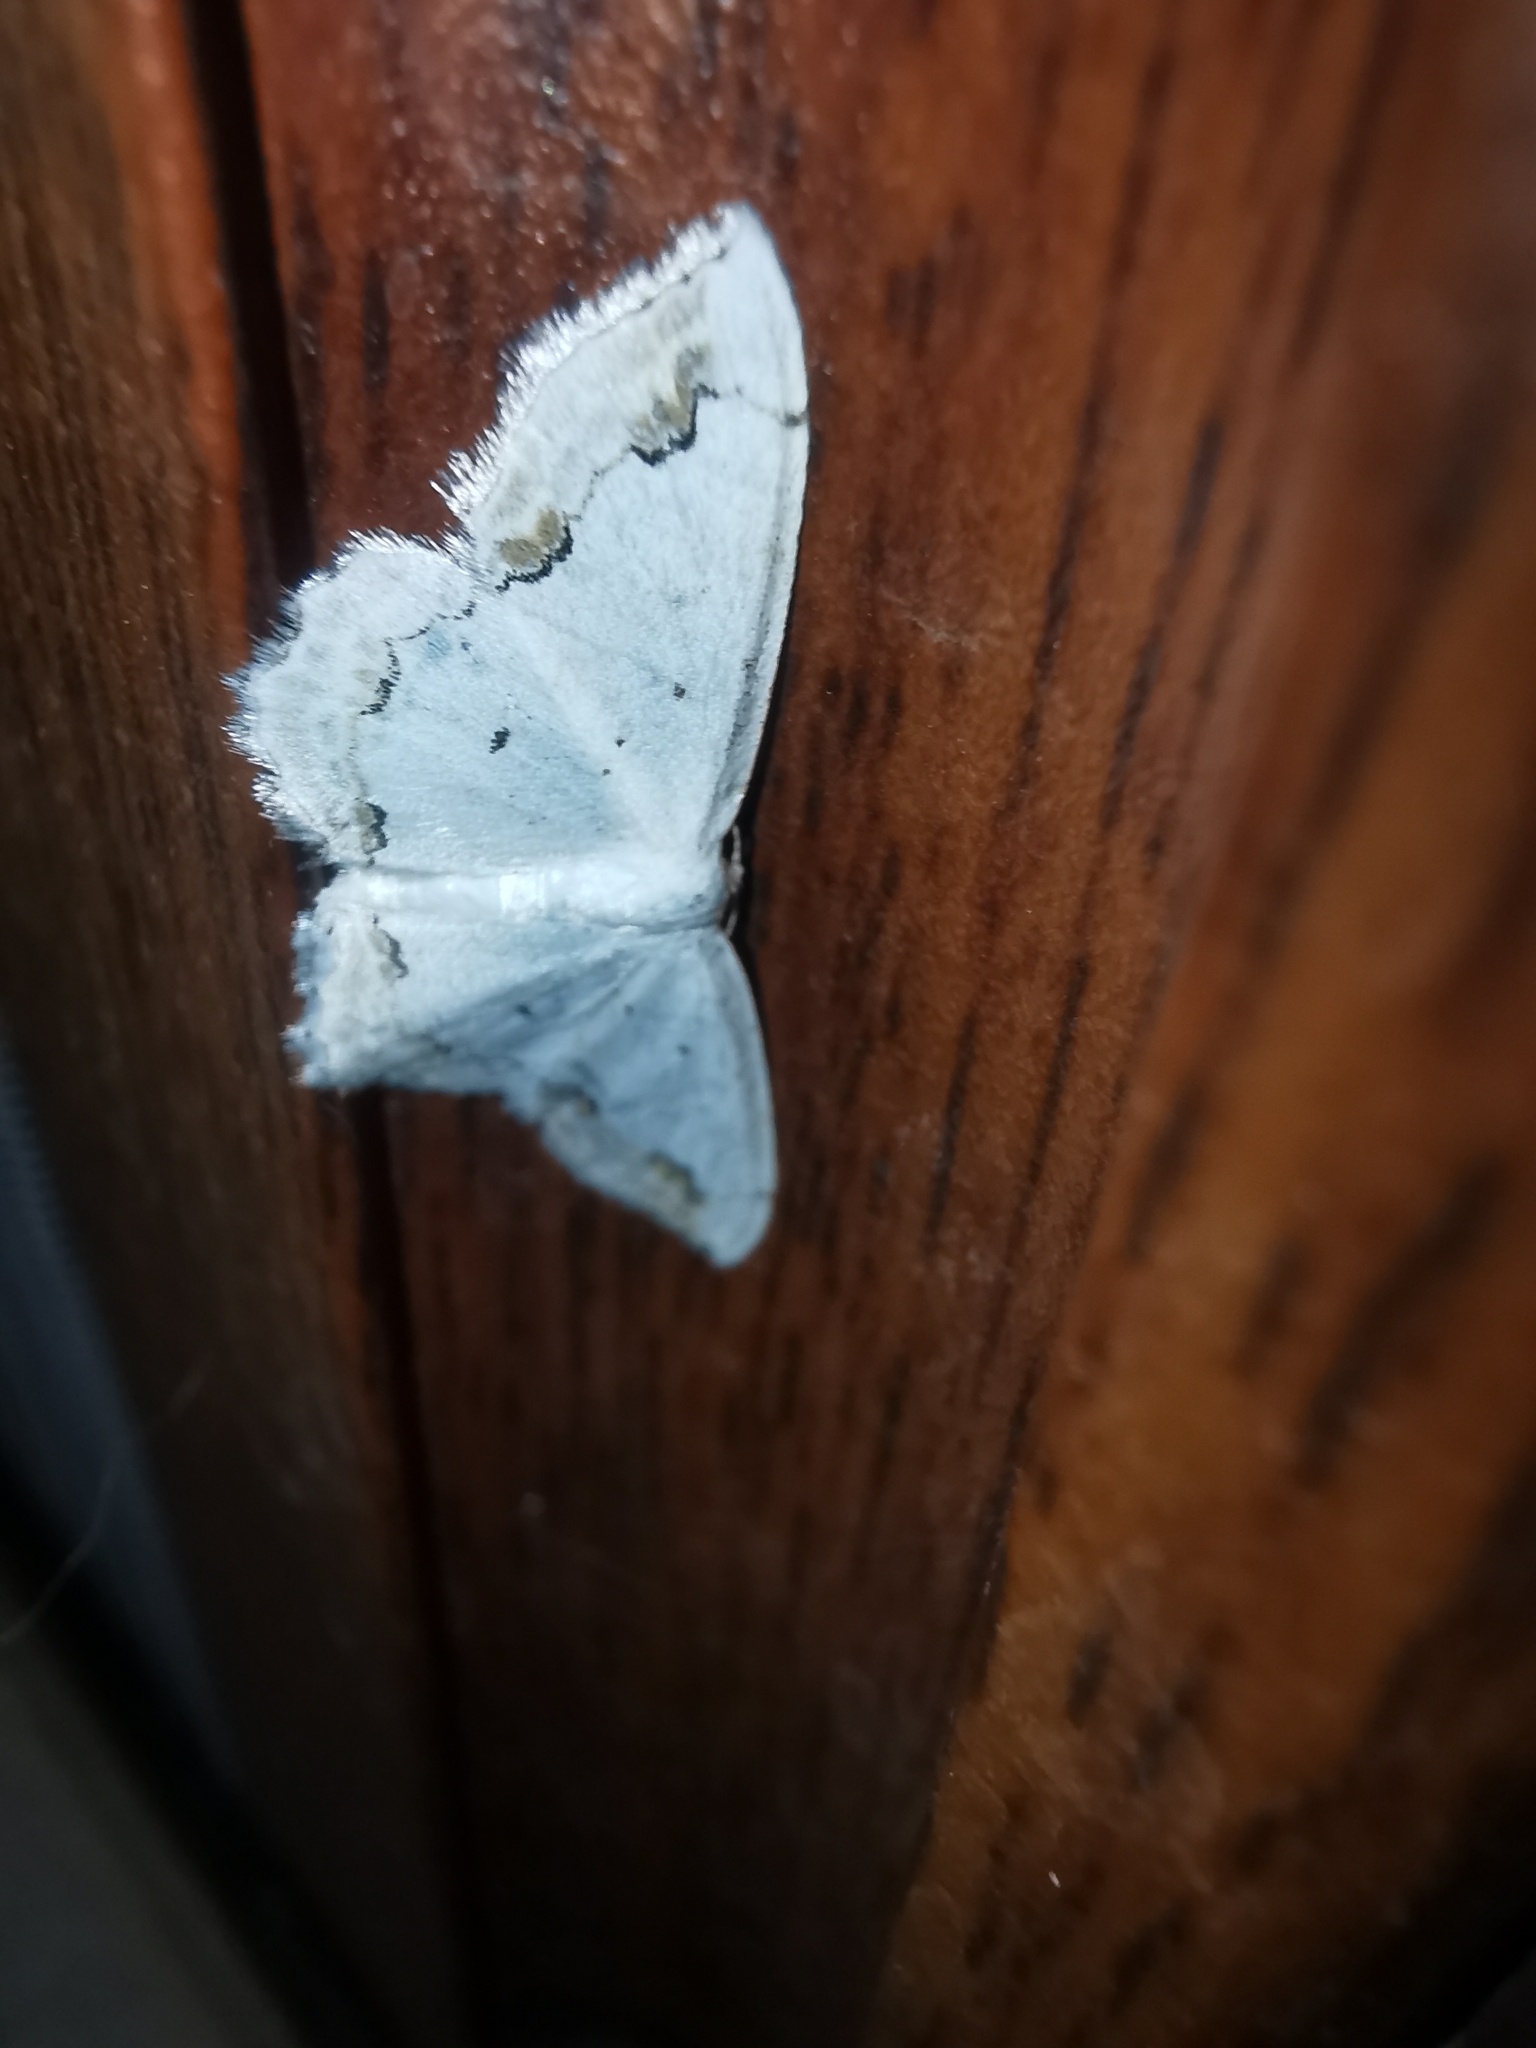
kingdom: Animalia
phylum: Arthropoda
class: Insecta
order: Lepidoptera
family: Geometridae
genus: Scopula
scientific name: Scopula ornata
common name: Lace border
